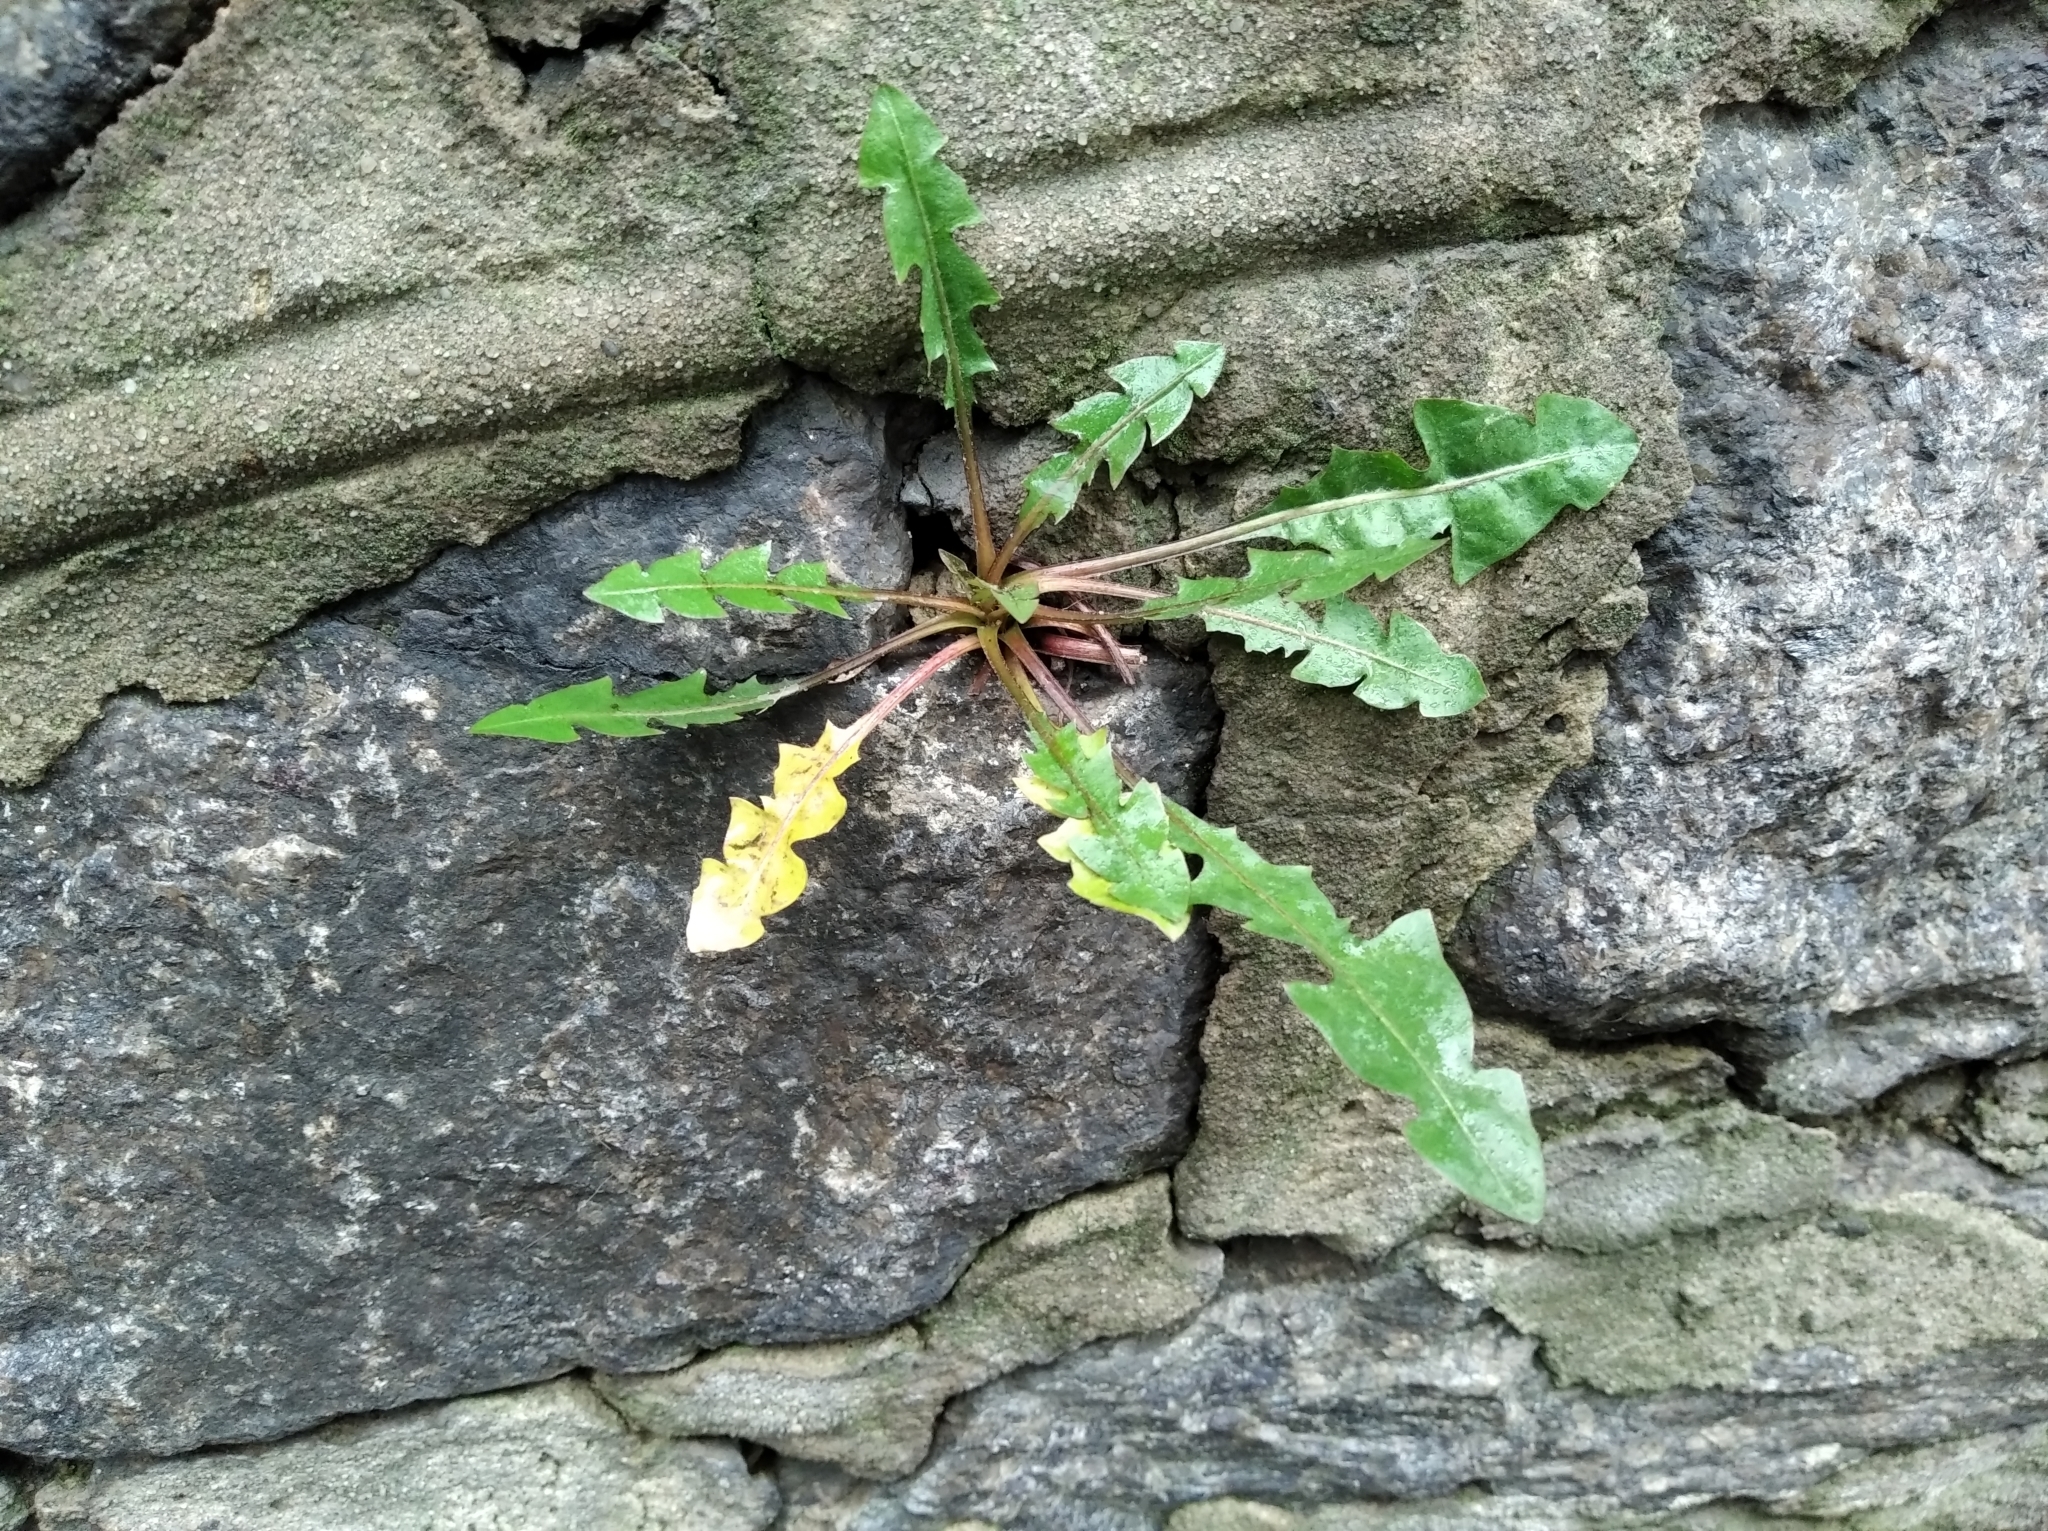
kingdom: Plantae
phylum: Tracheophyta
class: Magnoliopsida
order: Asterales
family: Asteraceae
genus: Taraxacum
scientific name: Taraxacum officinale
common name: Common dandelion
